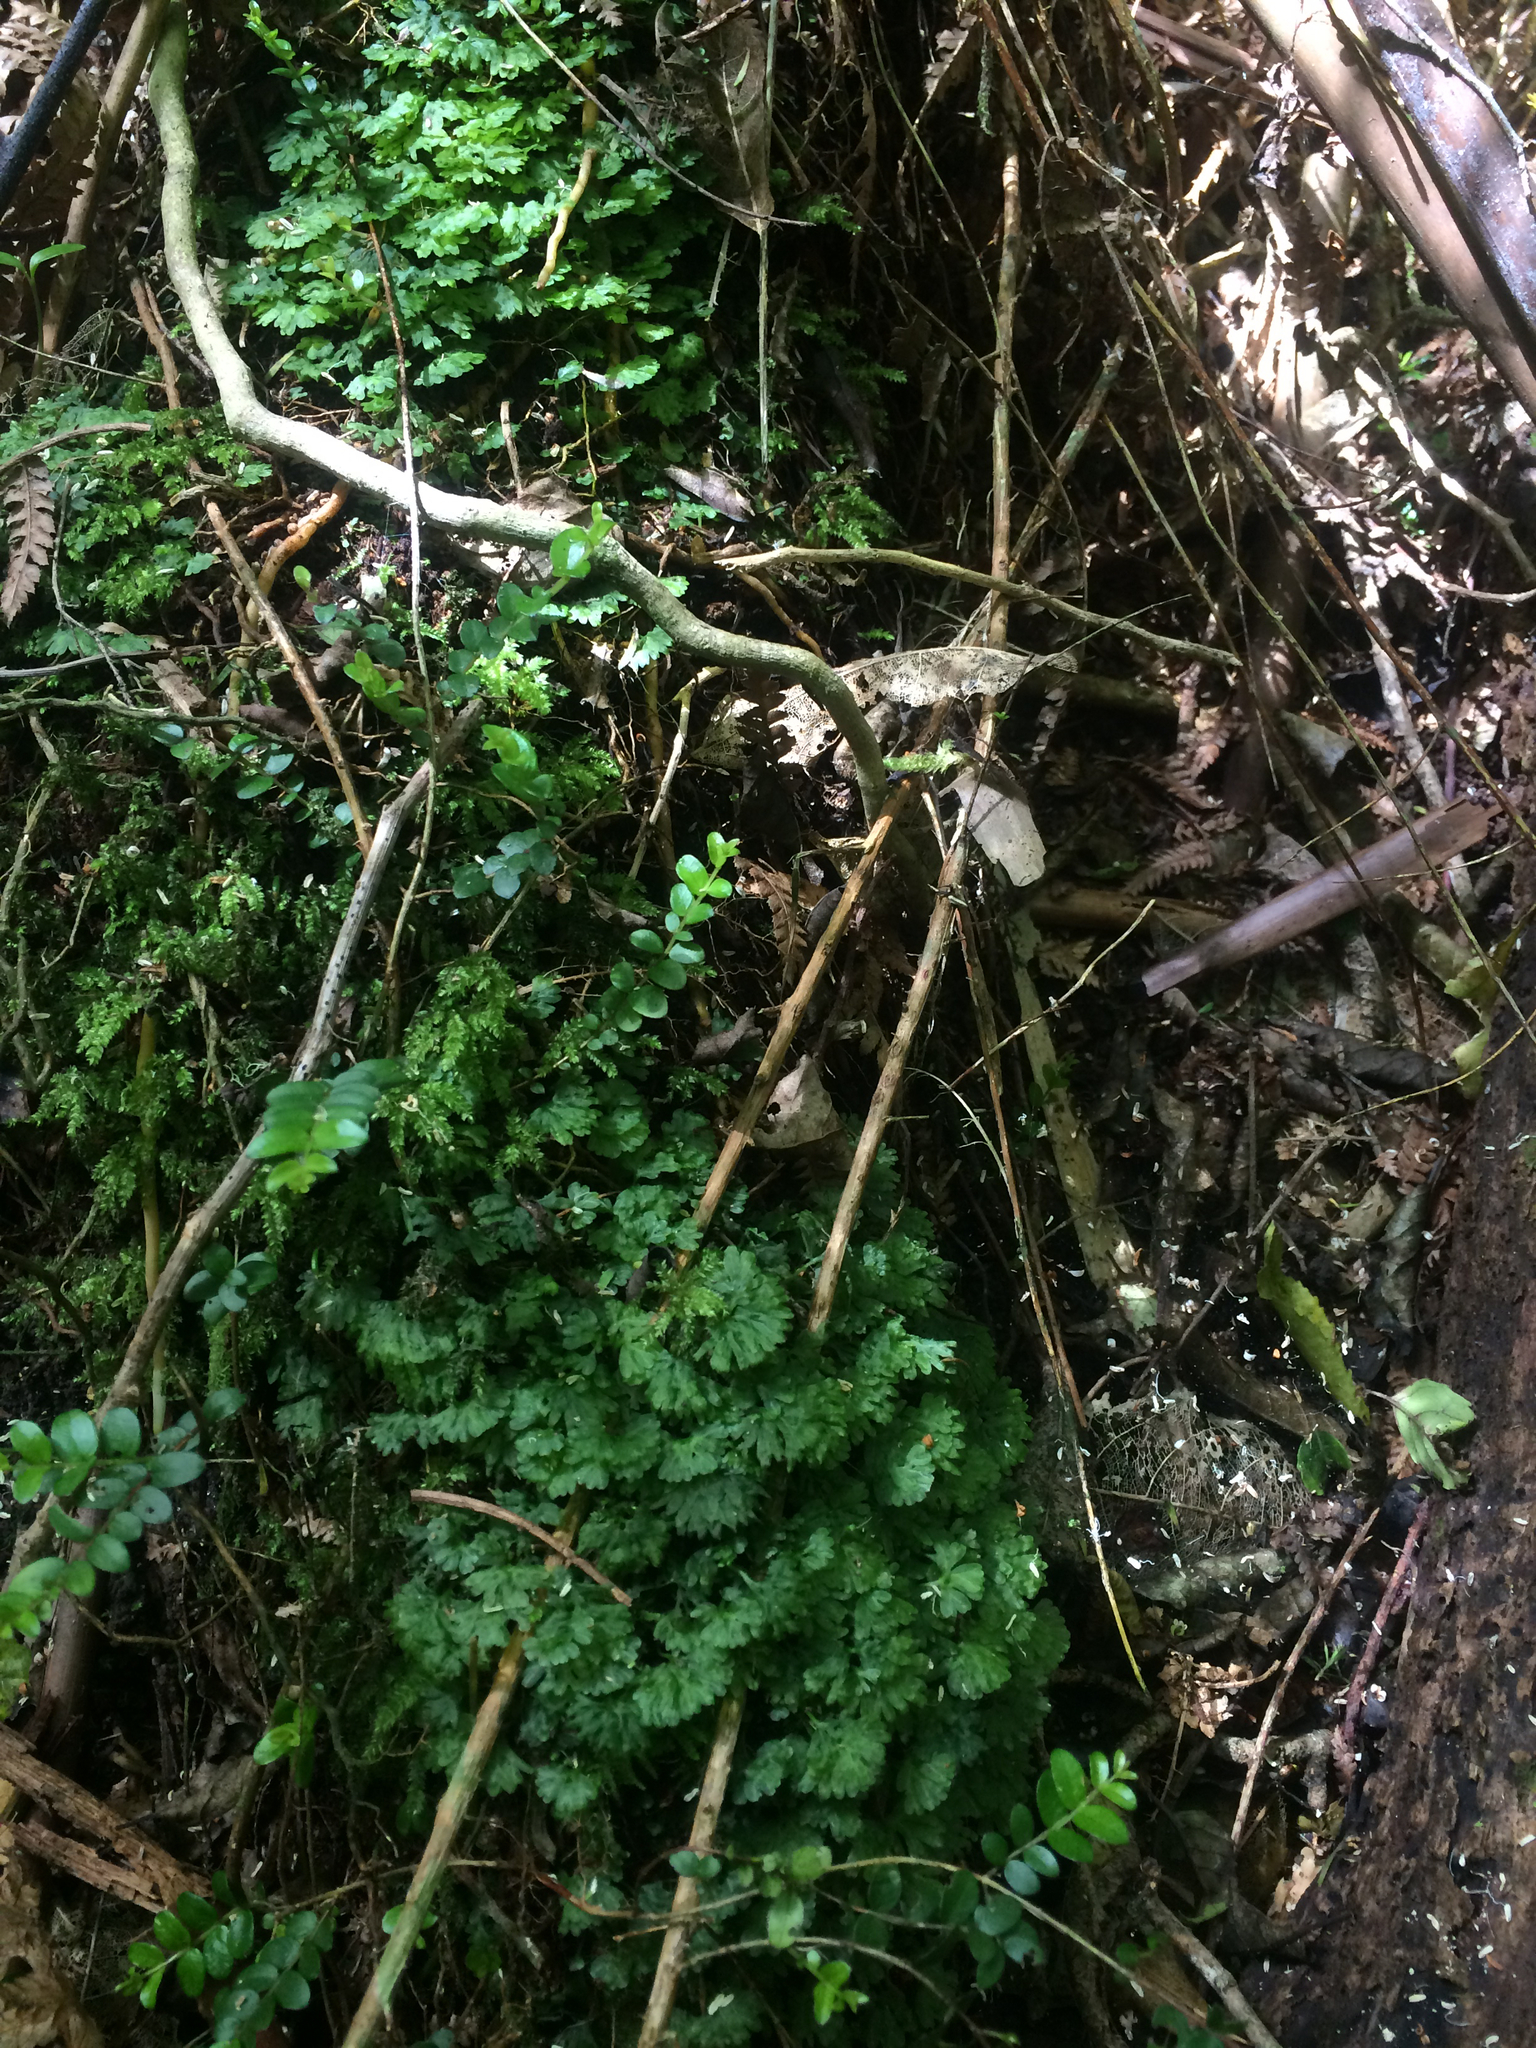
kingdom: Plantae
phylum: Marchantiophyta
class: Jungermanniopsida
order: Pallaviciniales
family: Hymenophytaceae
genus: Hymenophyton
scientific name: Hymenophyton flabellatum
